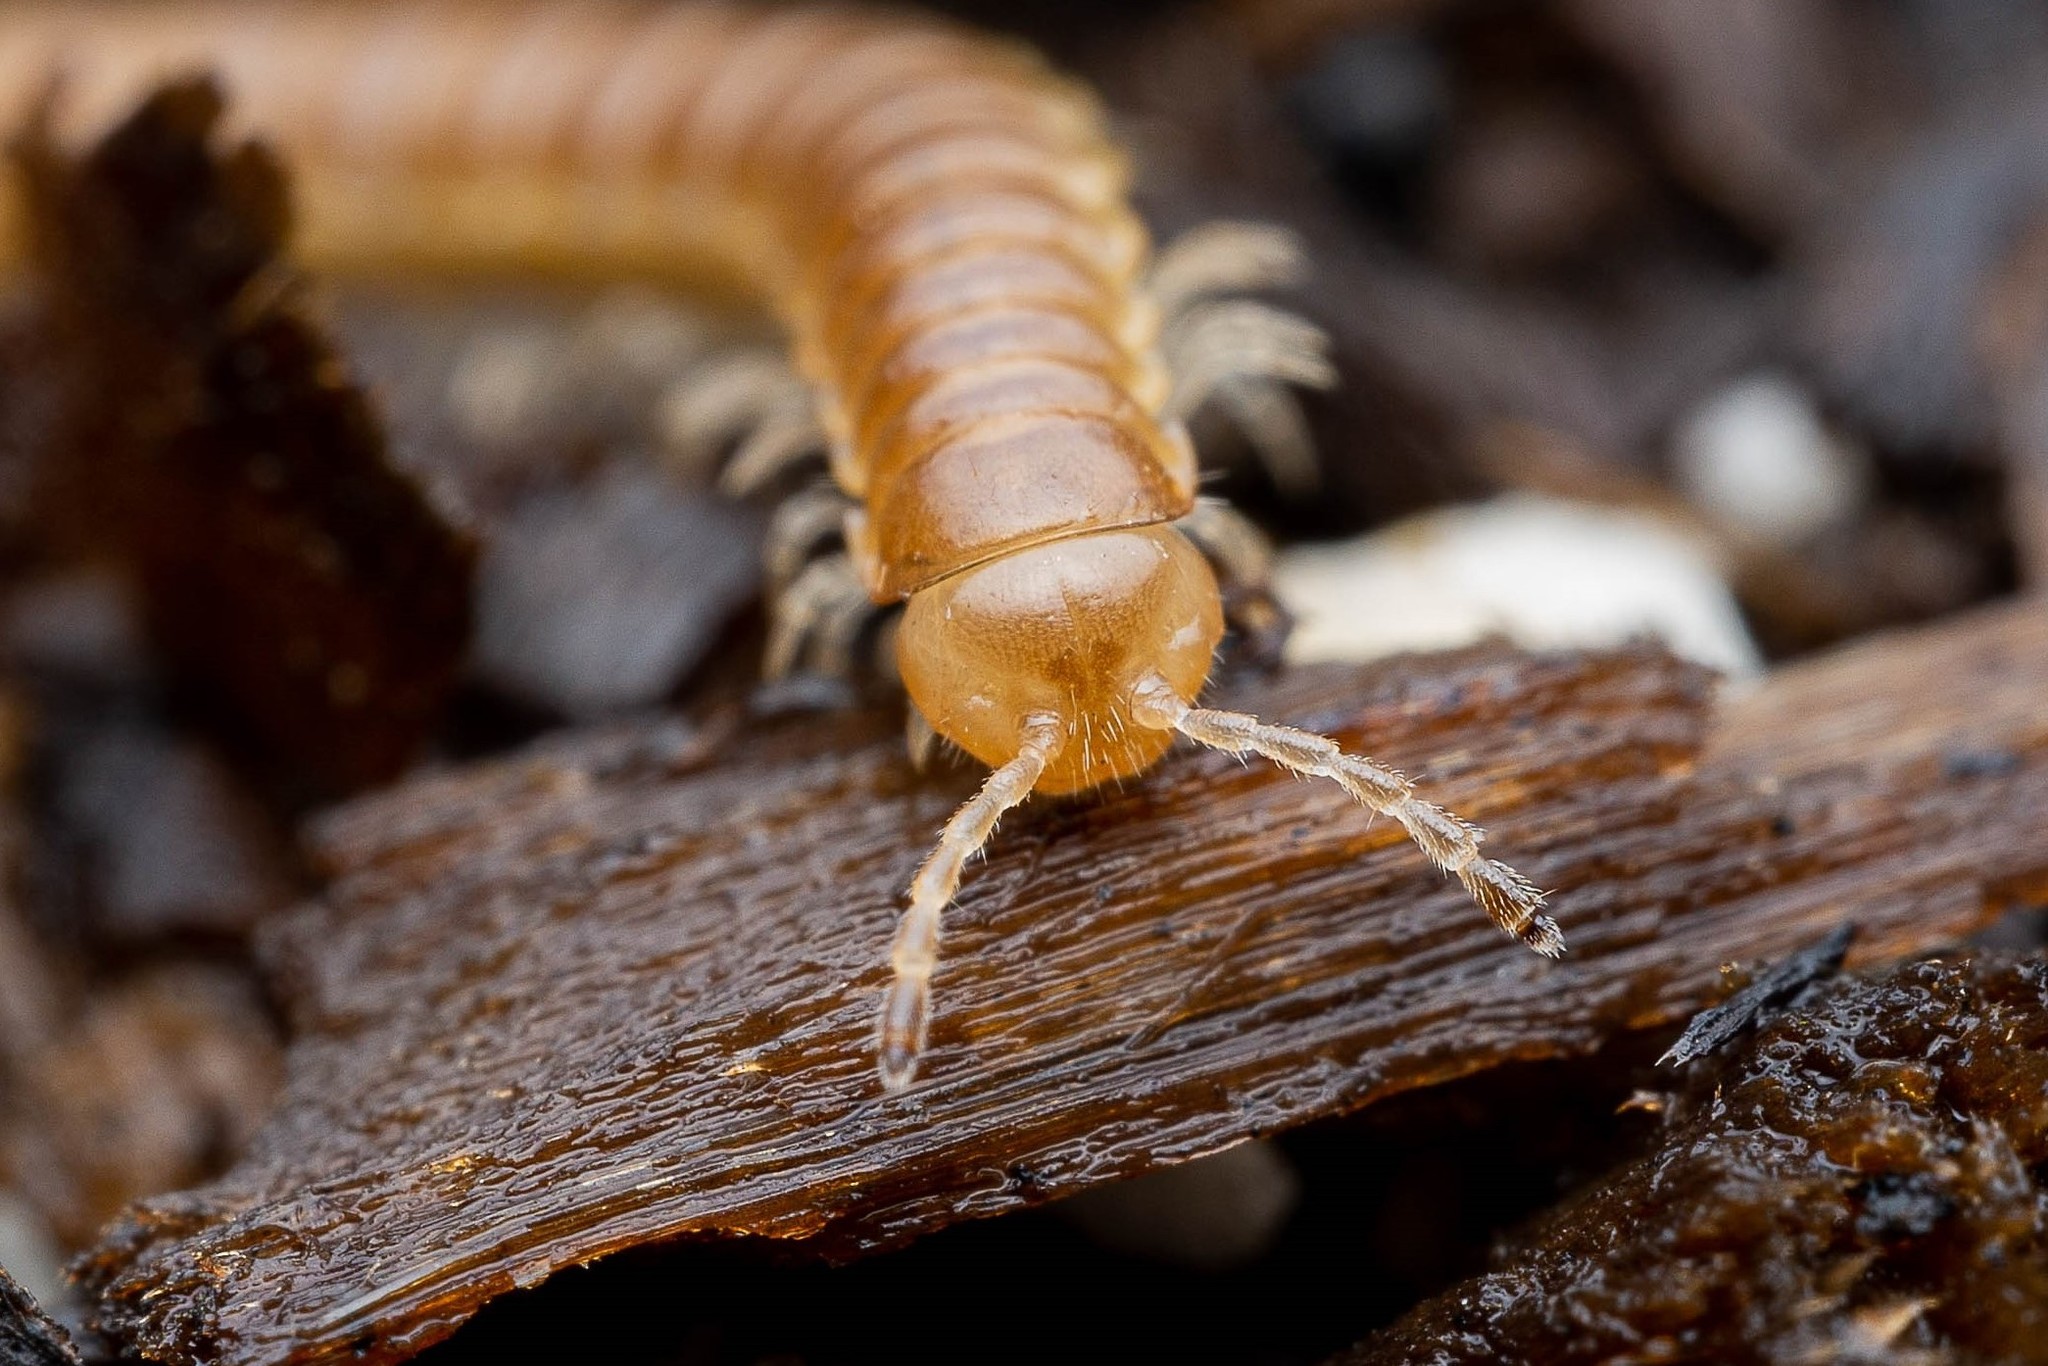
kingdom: Animalia
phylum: Arthropoda
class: Diplopoda
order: Polydesmida
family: Paradoxosomatidae
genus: Oxidus
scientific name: Oxidus gracilis
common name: Greenhouse millipede
